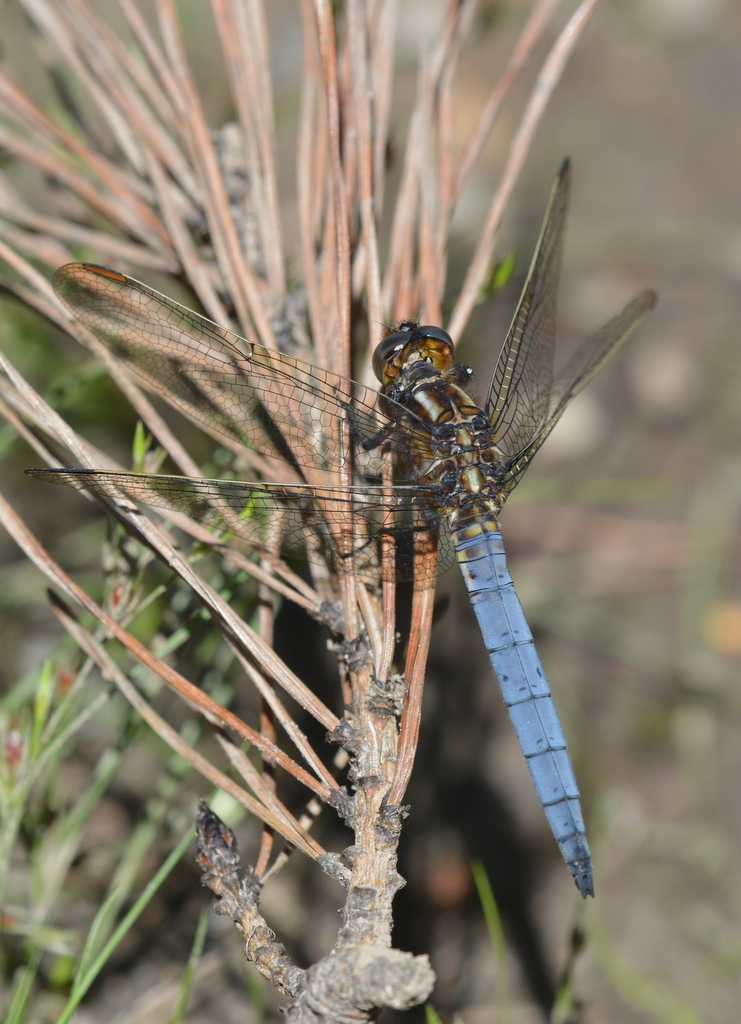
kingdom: Animalia
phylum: Arthropoda
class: Insecta
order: Odonata
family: Libellulidae
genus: Orthetrum
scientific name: Orthetrum coerulescens
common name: Keeled skimmer
